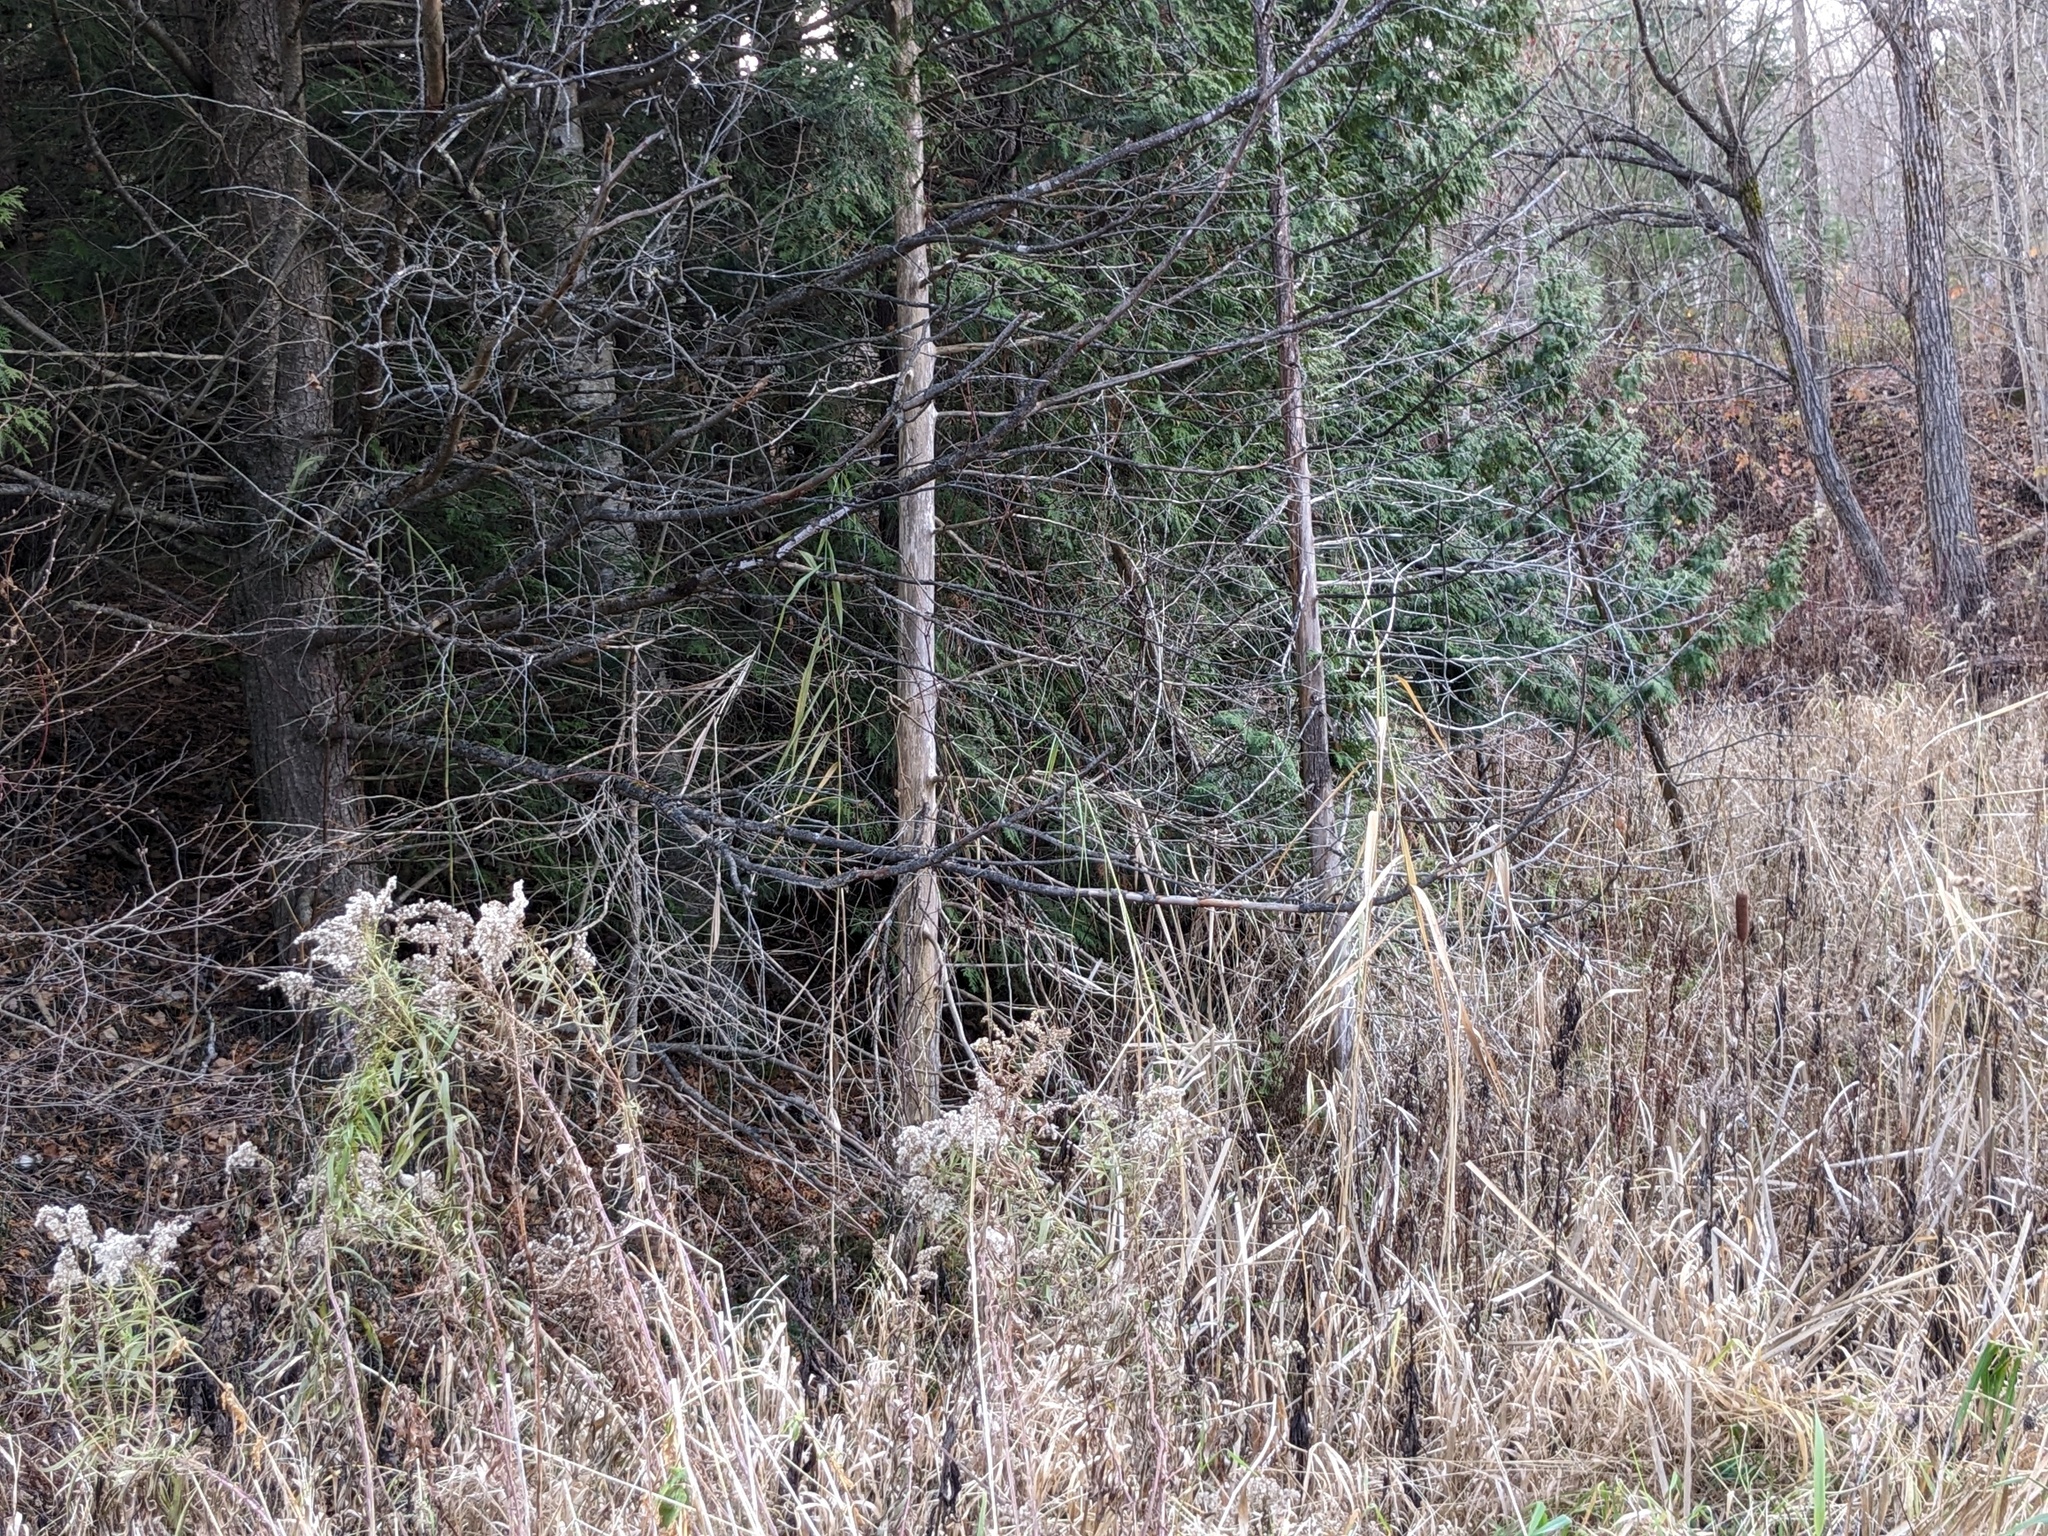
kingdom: Plantae
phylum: Tracheophyta
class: Liliopsida
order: Poales
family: Poaceae
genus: Phragmites
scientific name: Phragmites australis
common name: Common reed
